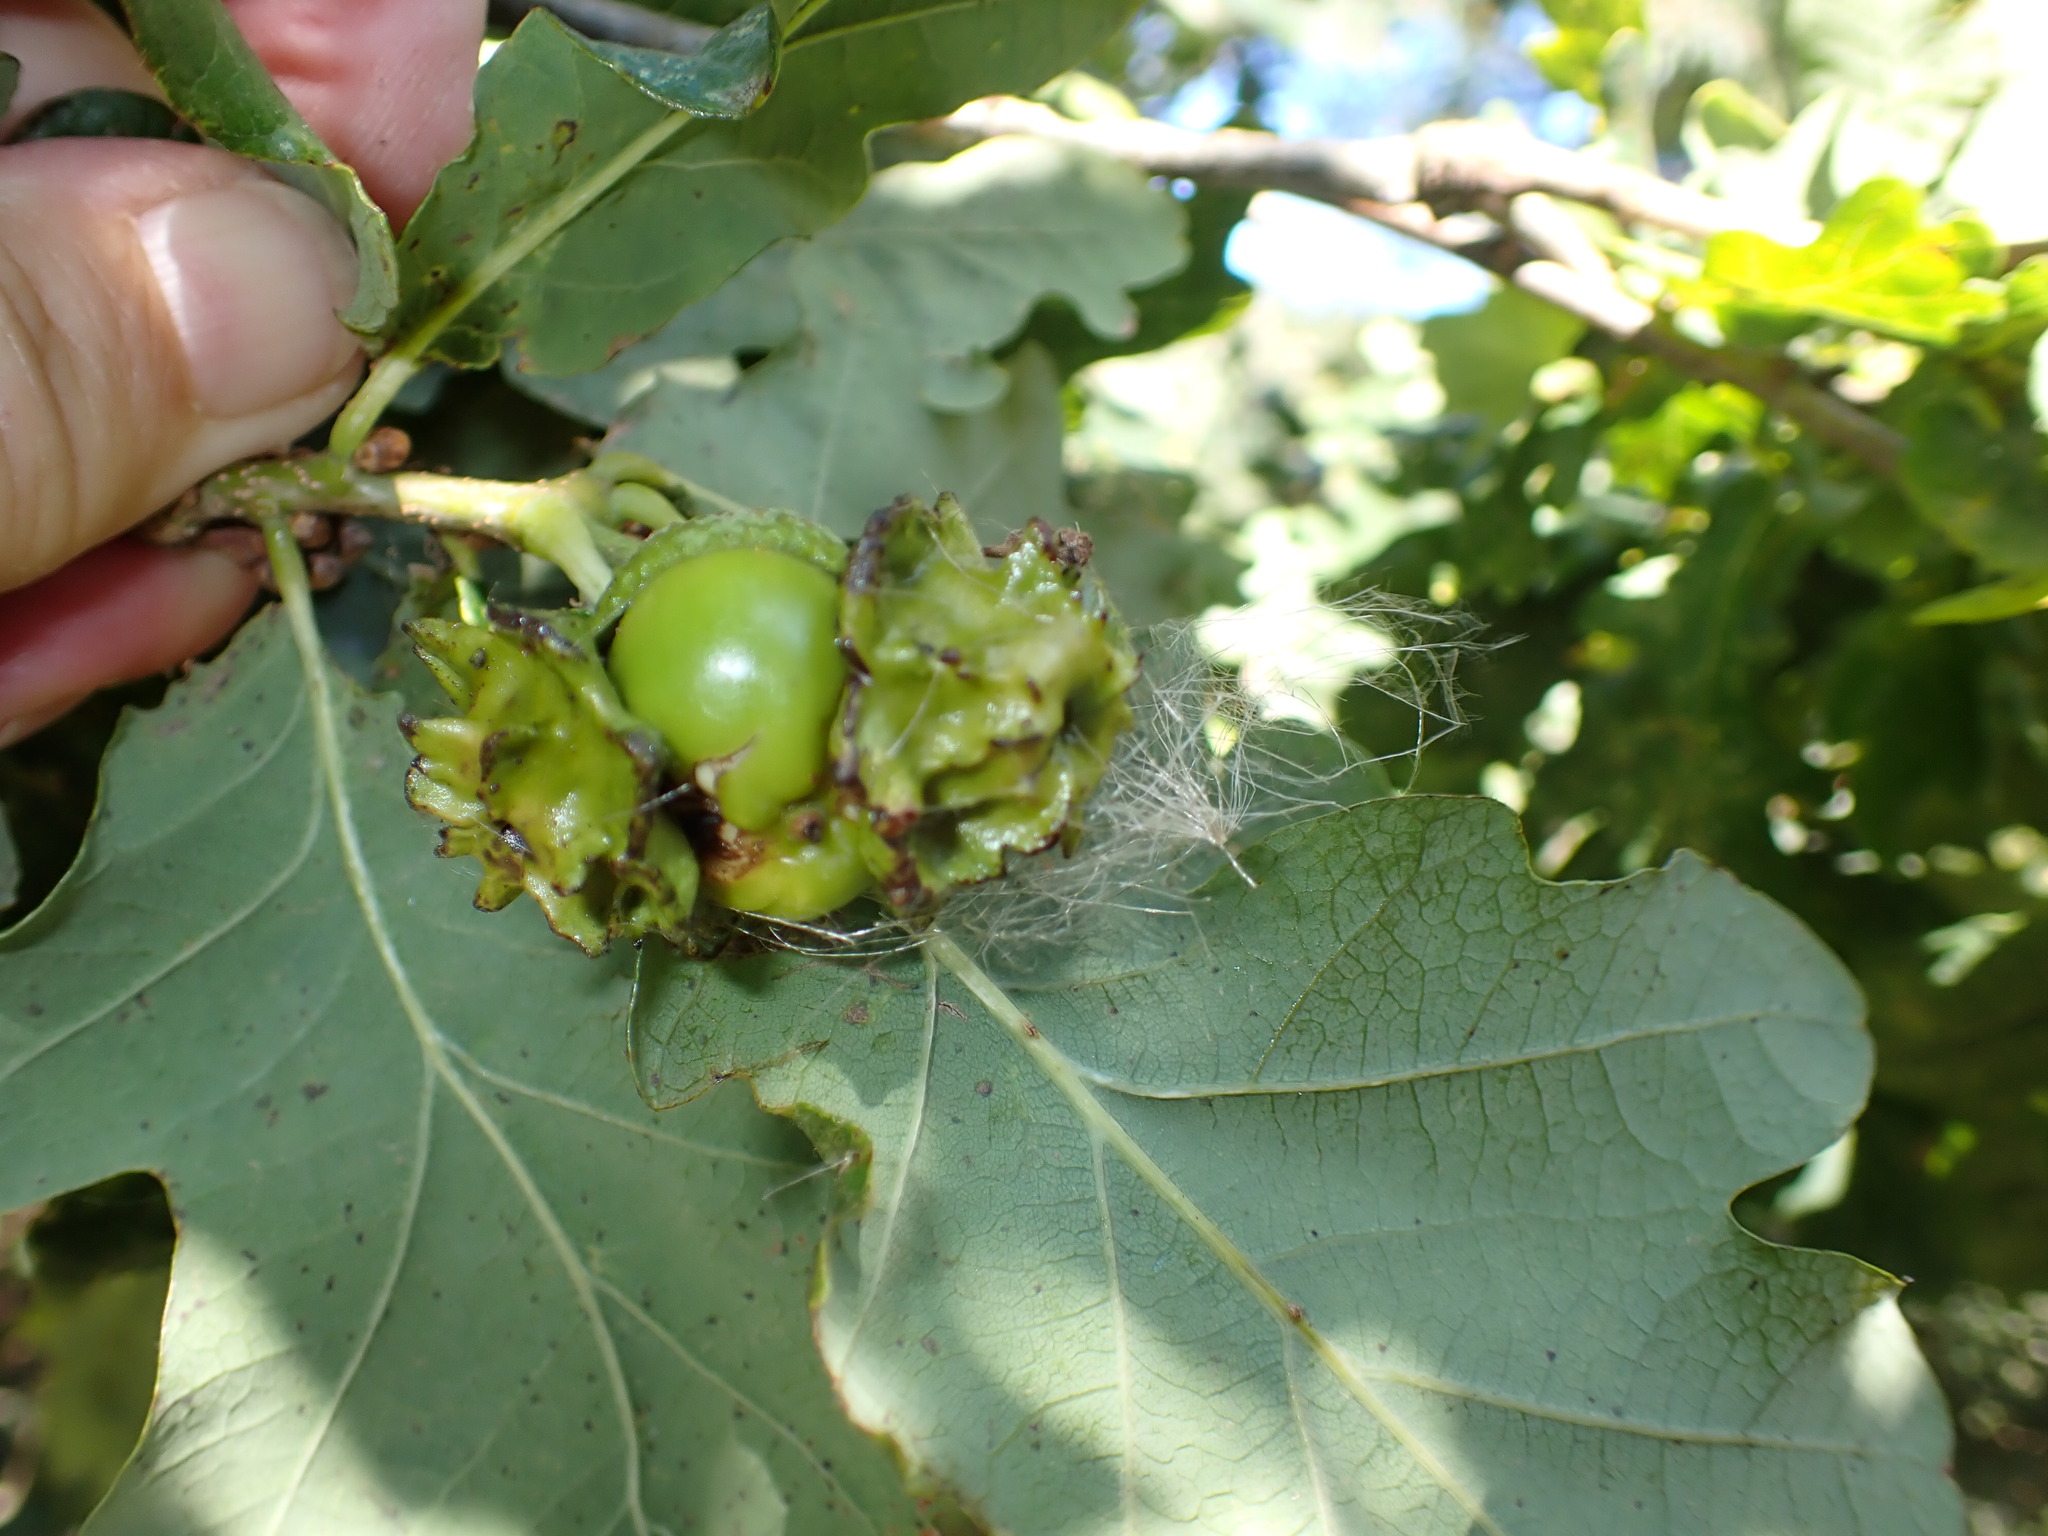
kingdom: Animalia
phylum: Arthropoda
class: Insecta
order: Hymenoptera
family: Cynipidae
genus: Andricus
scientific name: Andricus quercuscalicis
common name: Knopper gall
